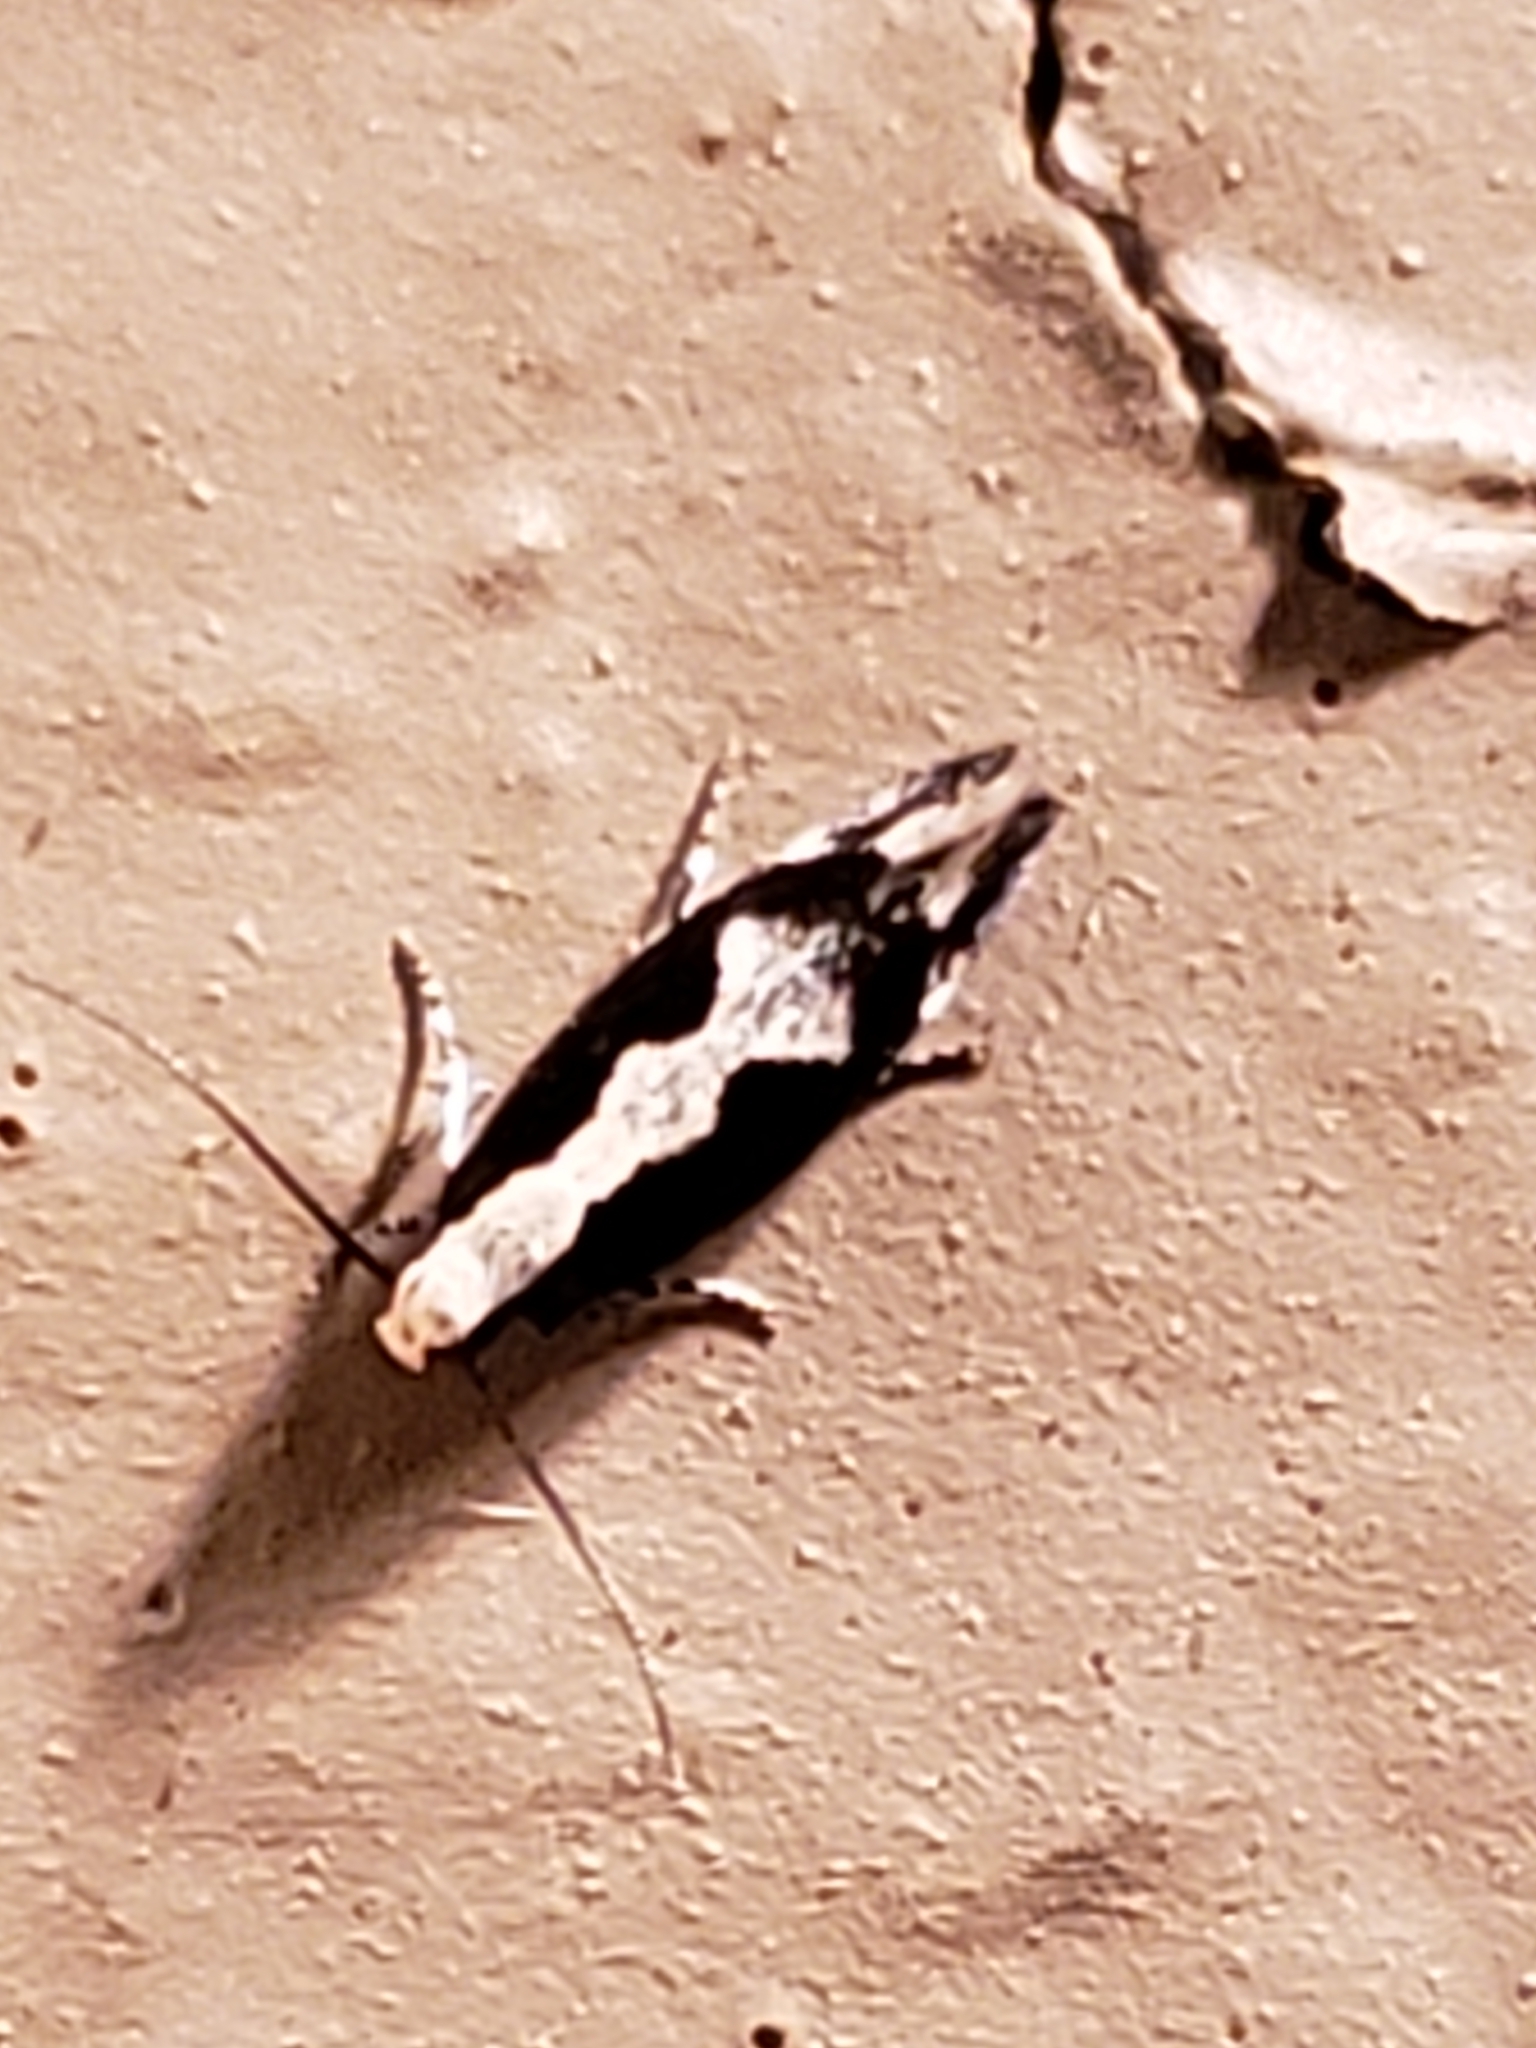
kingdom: Animalia
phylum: Arthropoda
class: Insecta
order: Lepidoptera
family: Gelechiidae
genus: Agnippe
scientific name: Agnippe prunifoliella
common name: Skunk twirler
